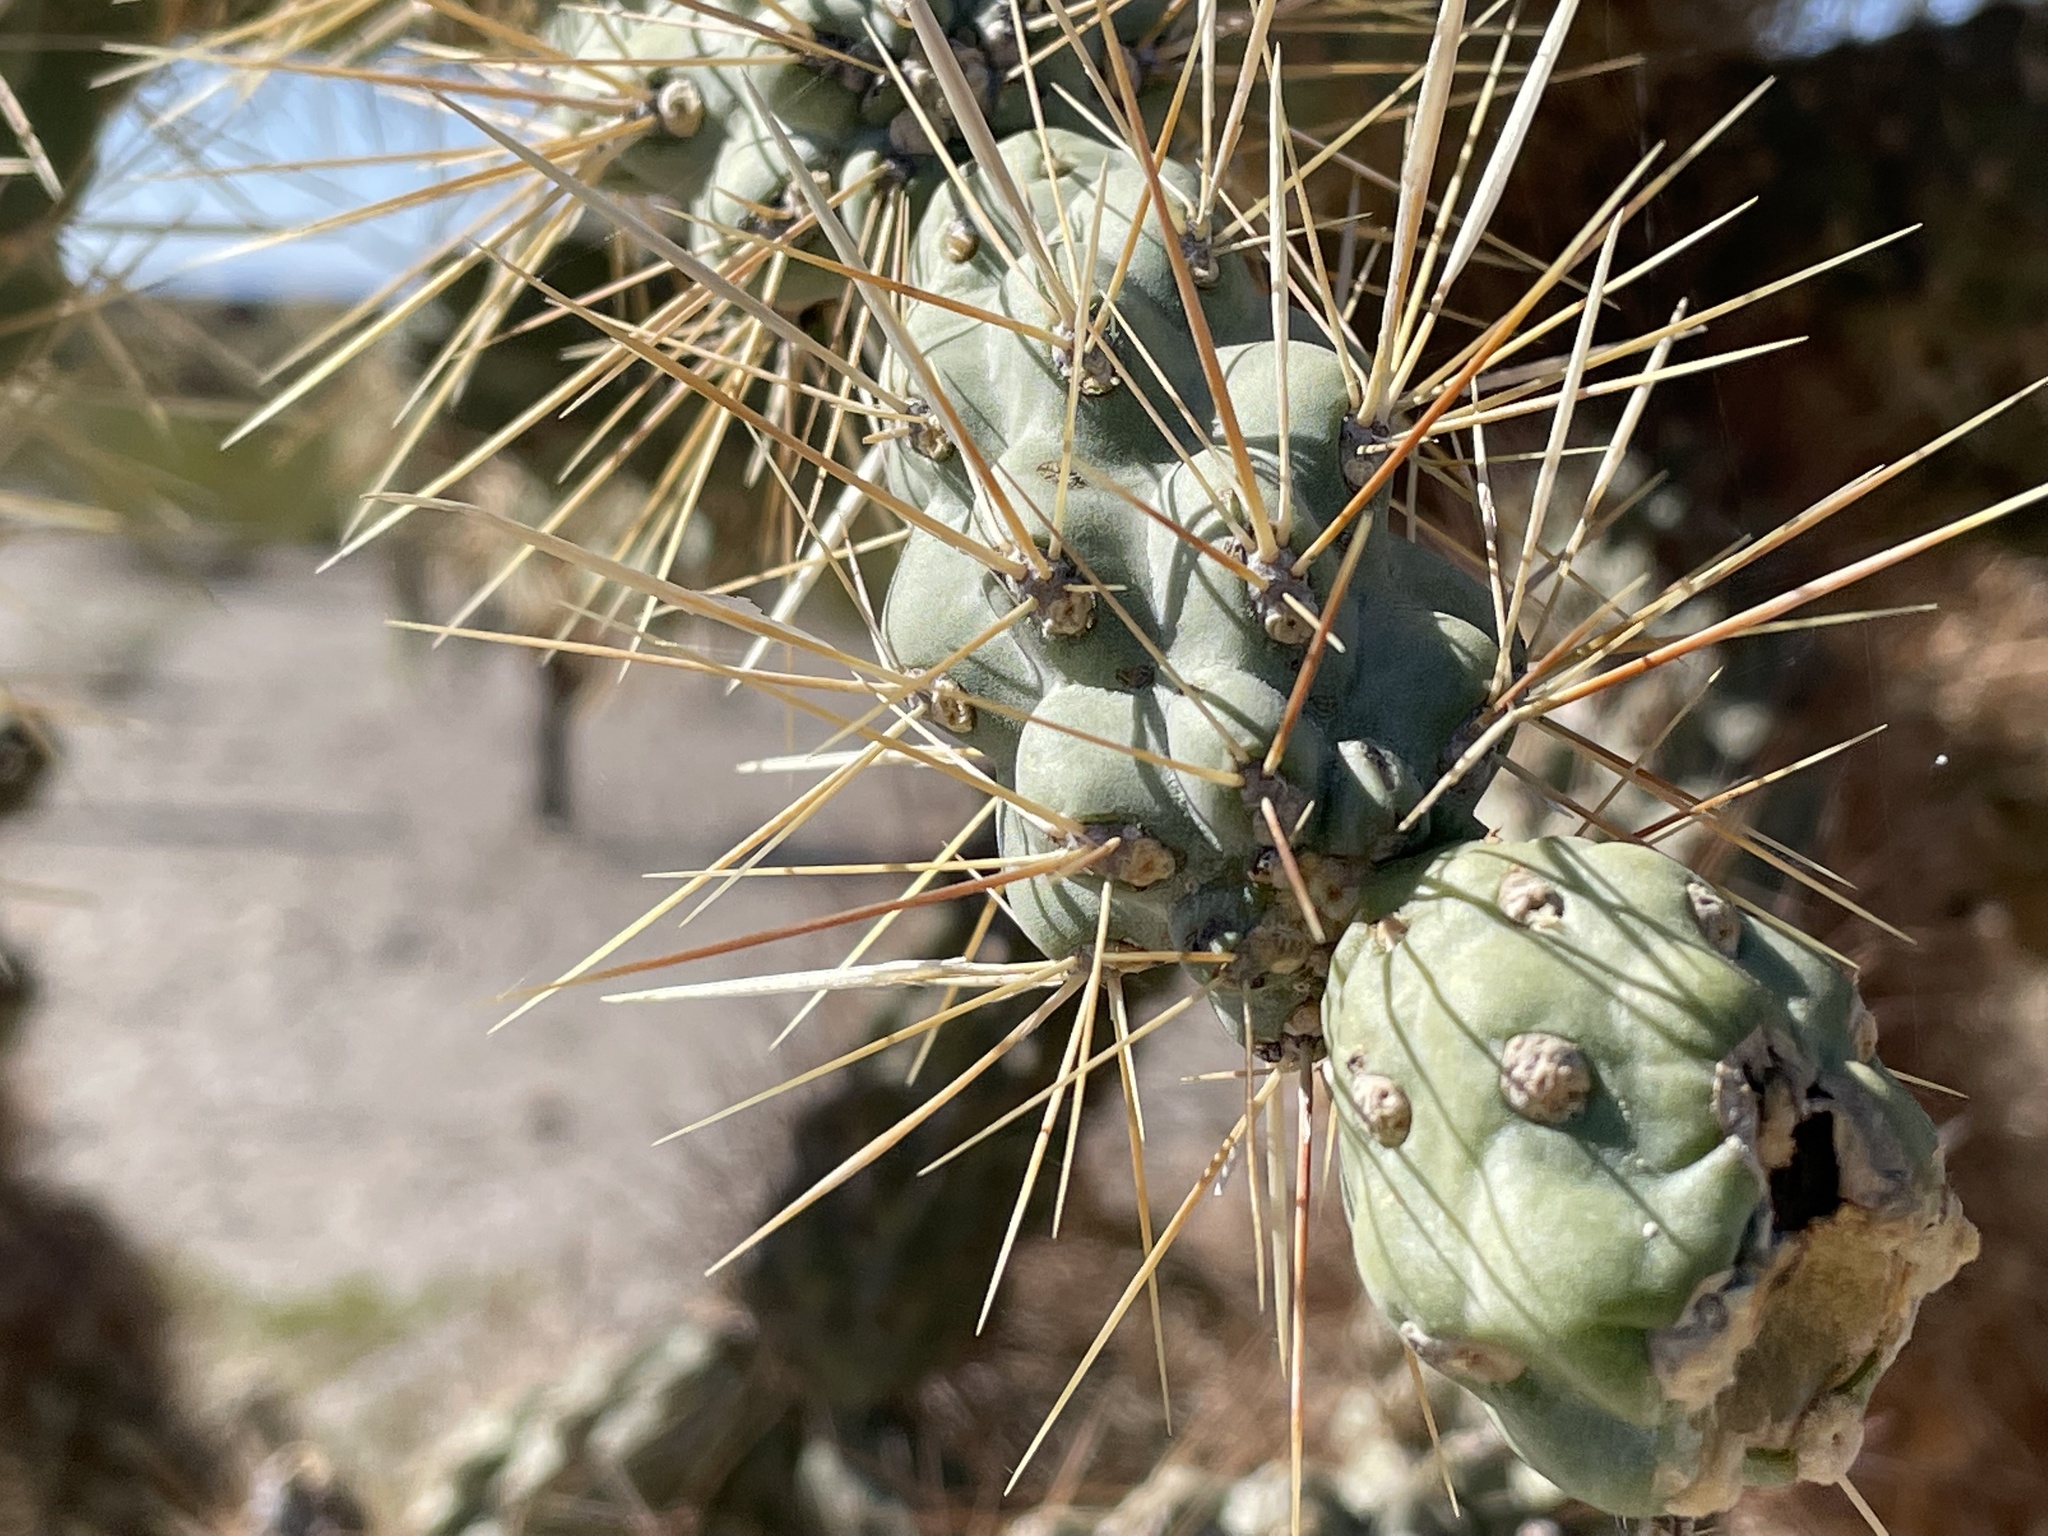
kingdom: Plantae
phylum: Tracheophyta
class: Magnoliopsida
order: Caryophyllales
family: Cactaceae
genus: Cylindropuntia
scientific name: Cylindropuntia fulgida
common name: Jumping cholla
